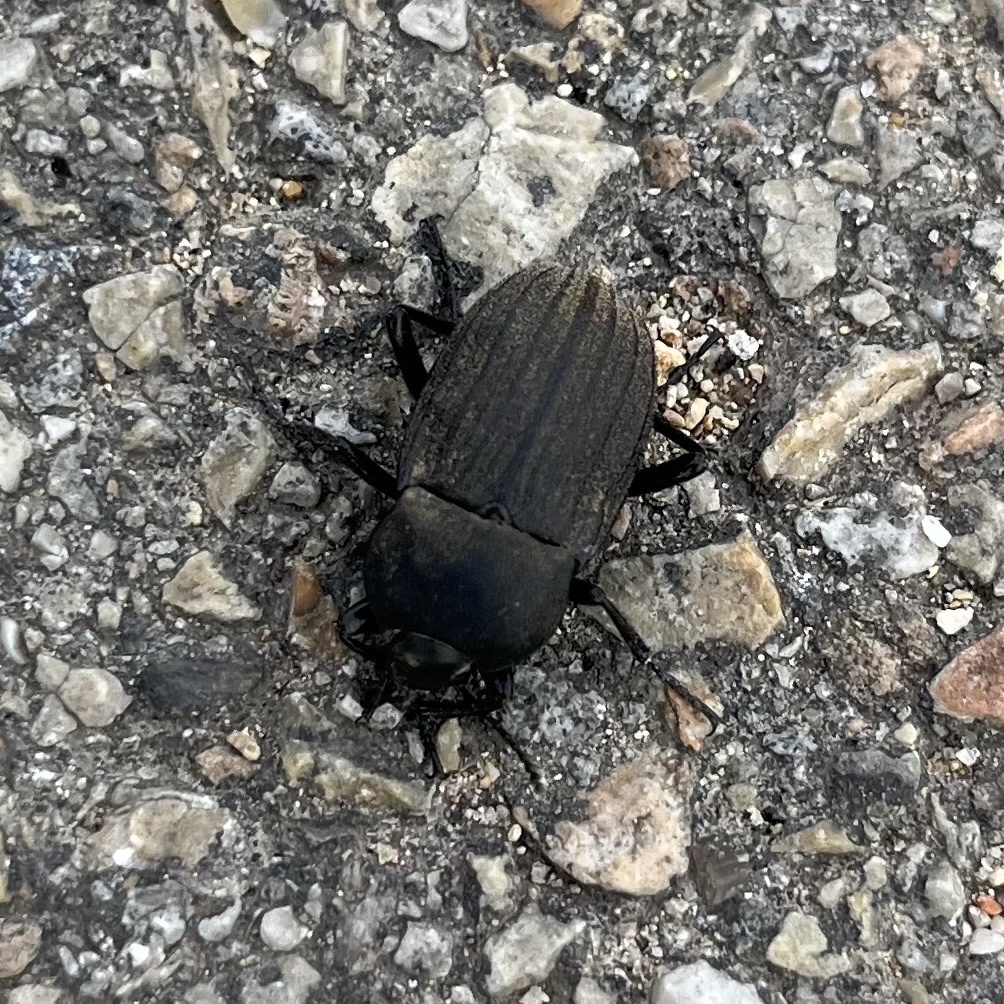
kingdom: Animalia
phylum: Arthropoda
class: Insecta
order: Coleoptera
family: Tenebrionidae
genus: Eleodes
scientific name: Eleodes tricostata
